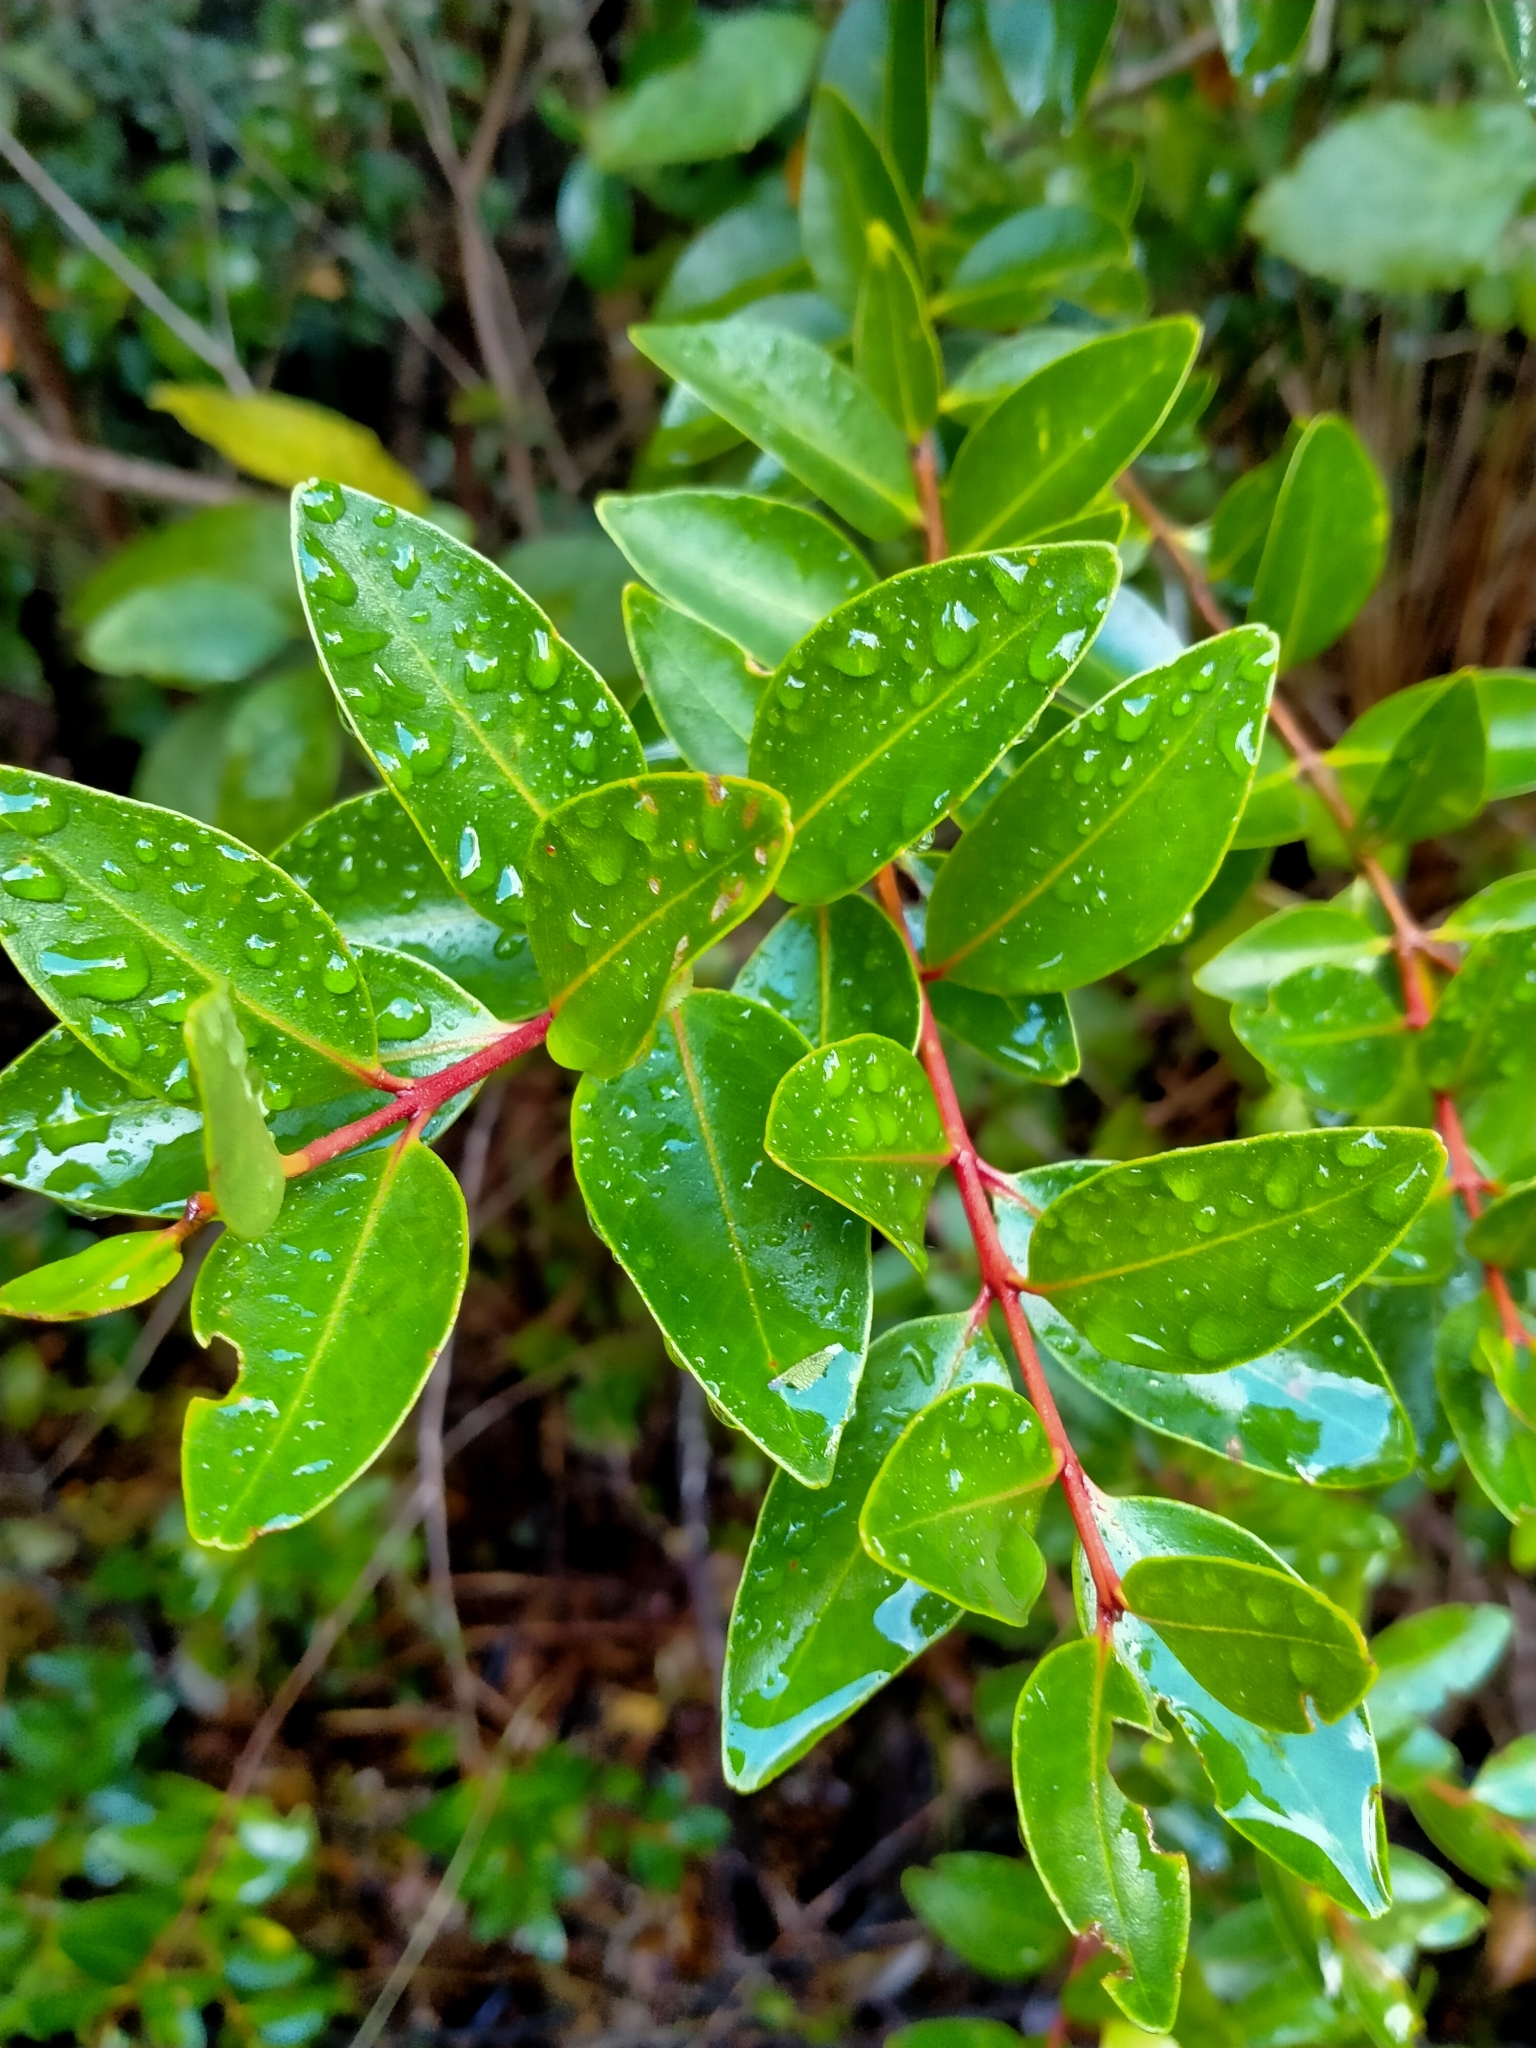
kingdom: Plantae
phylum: Tracheophyta
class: Magnoliopsida
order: Myrtales
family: Myrtaceae
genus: Metrosideros
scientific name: Metrosideros robusta
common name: Northern rata
